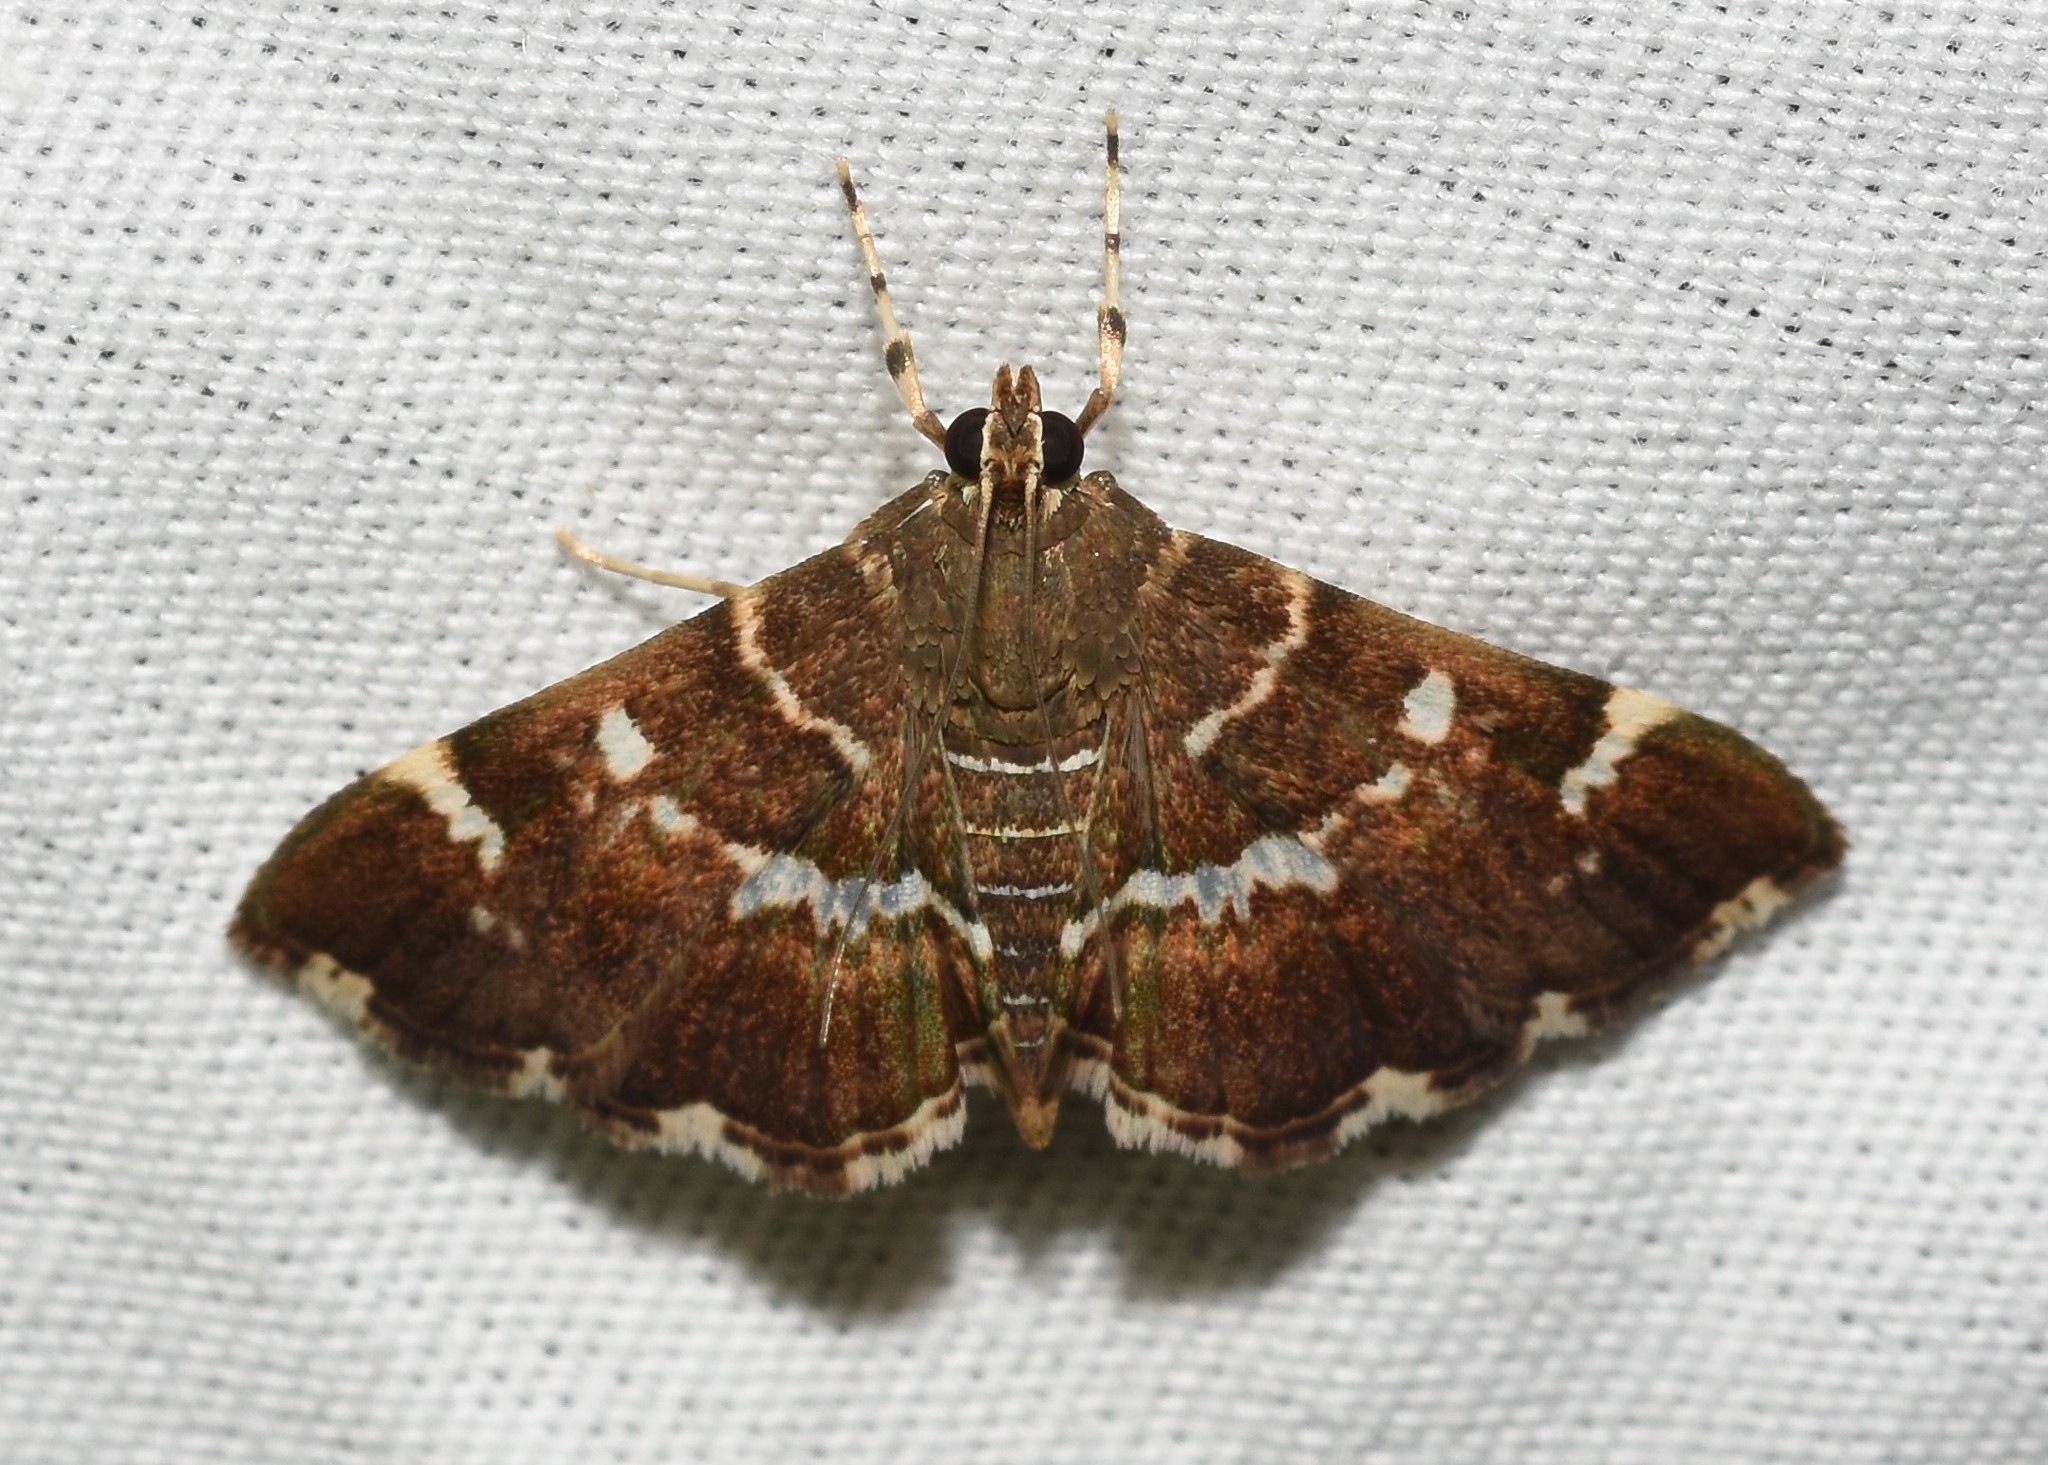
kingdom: Animalia
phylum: Arthropoda
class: Insecta
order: Lepidoptera
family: Crambidae
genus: Hymenia
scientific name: Hymenia perspectalis
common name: Spotted beet webworm
